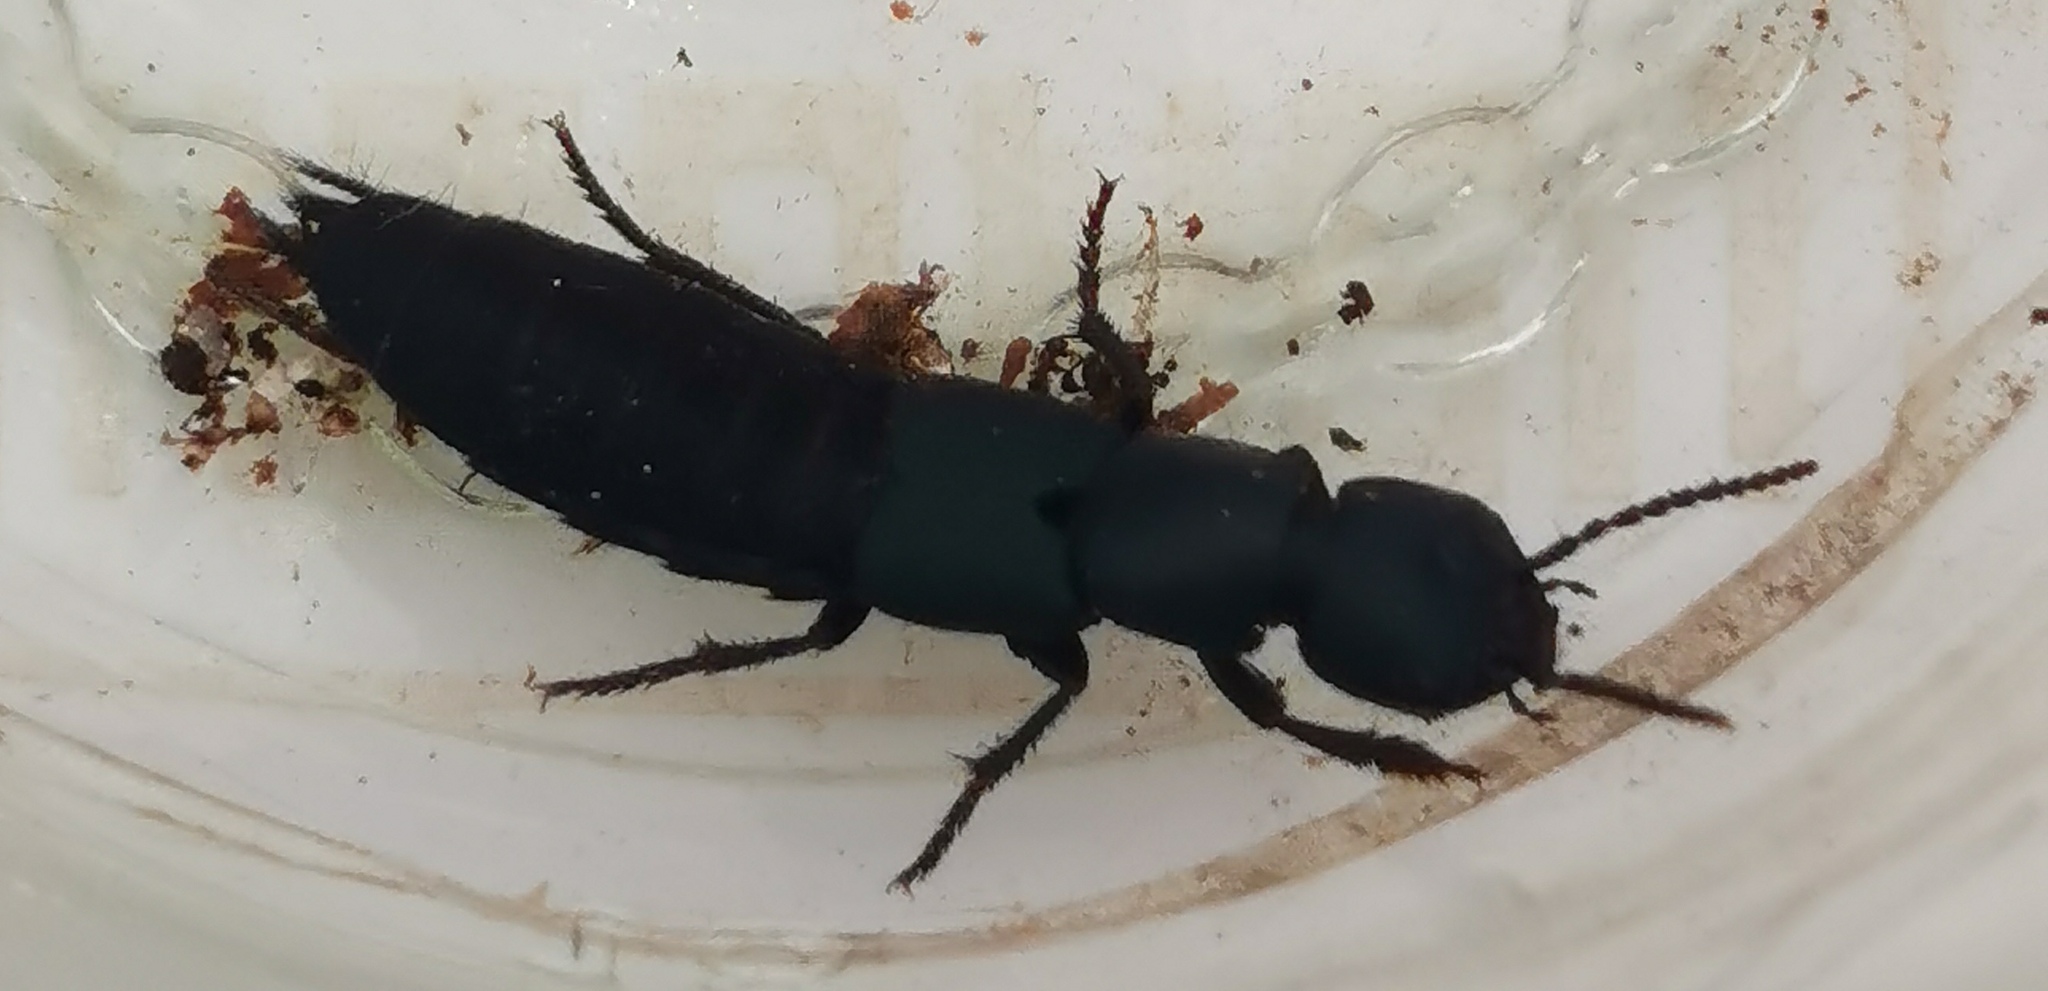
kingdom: Animalia
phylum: Arthropoda
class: Insecta
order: Coleoptera
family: Staphylinidae
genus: Ocypus
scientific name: Ocypus ophthalmicus
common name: Blue rove-beetle
